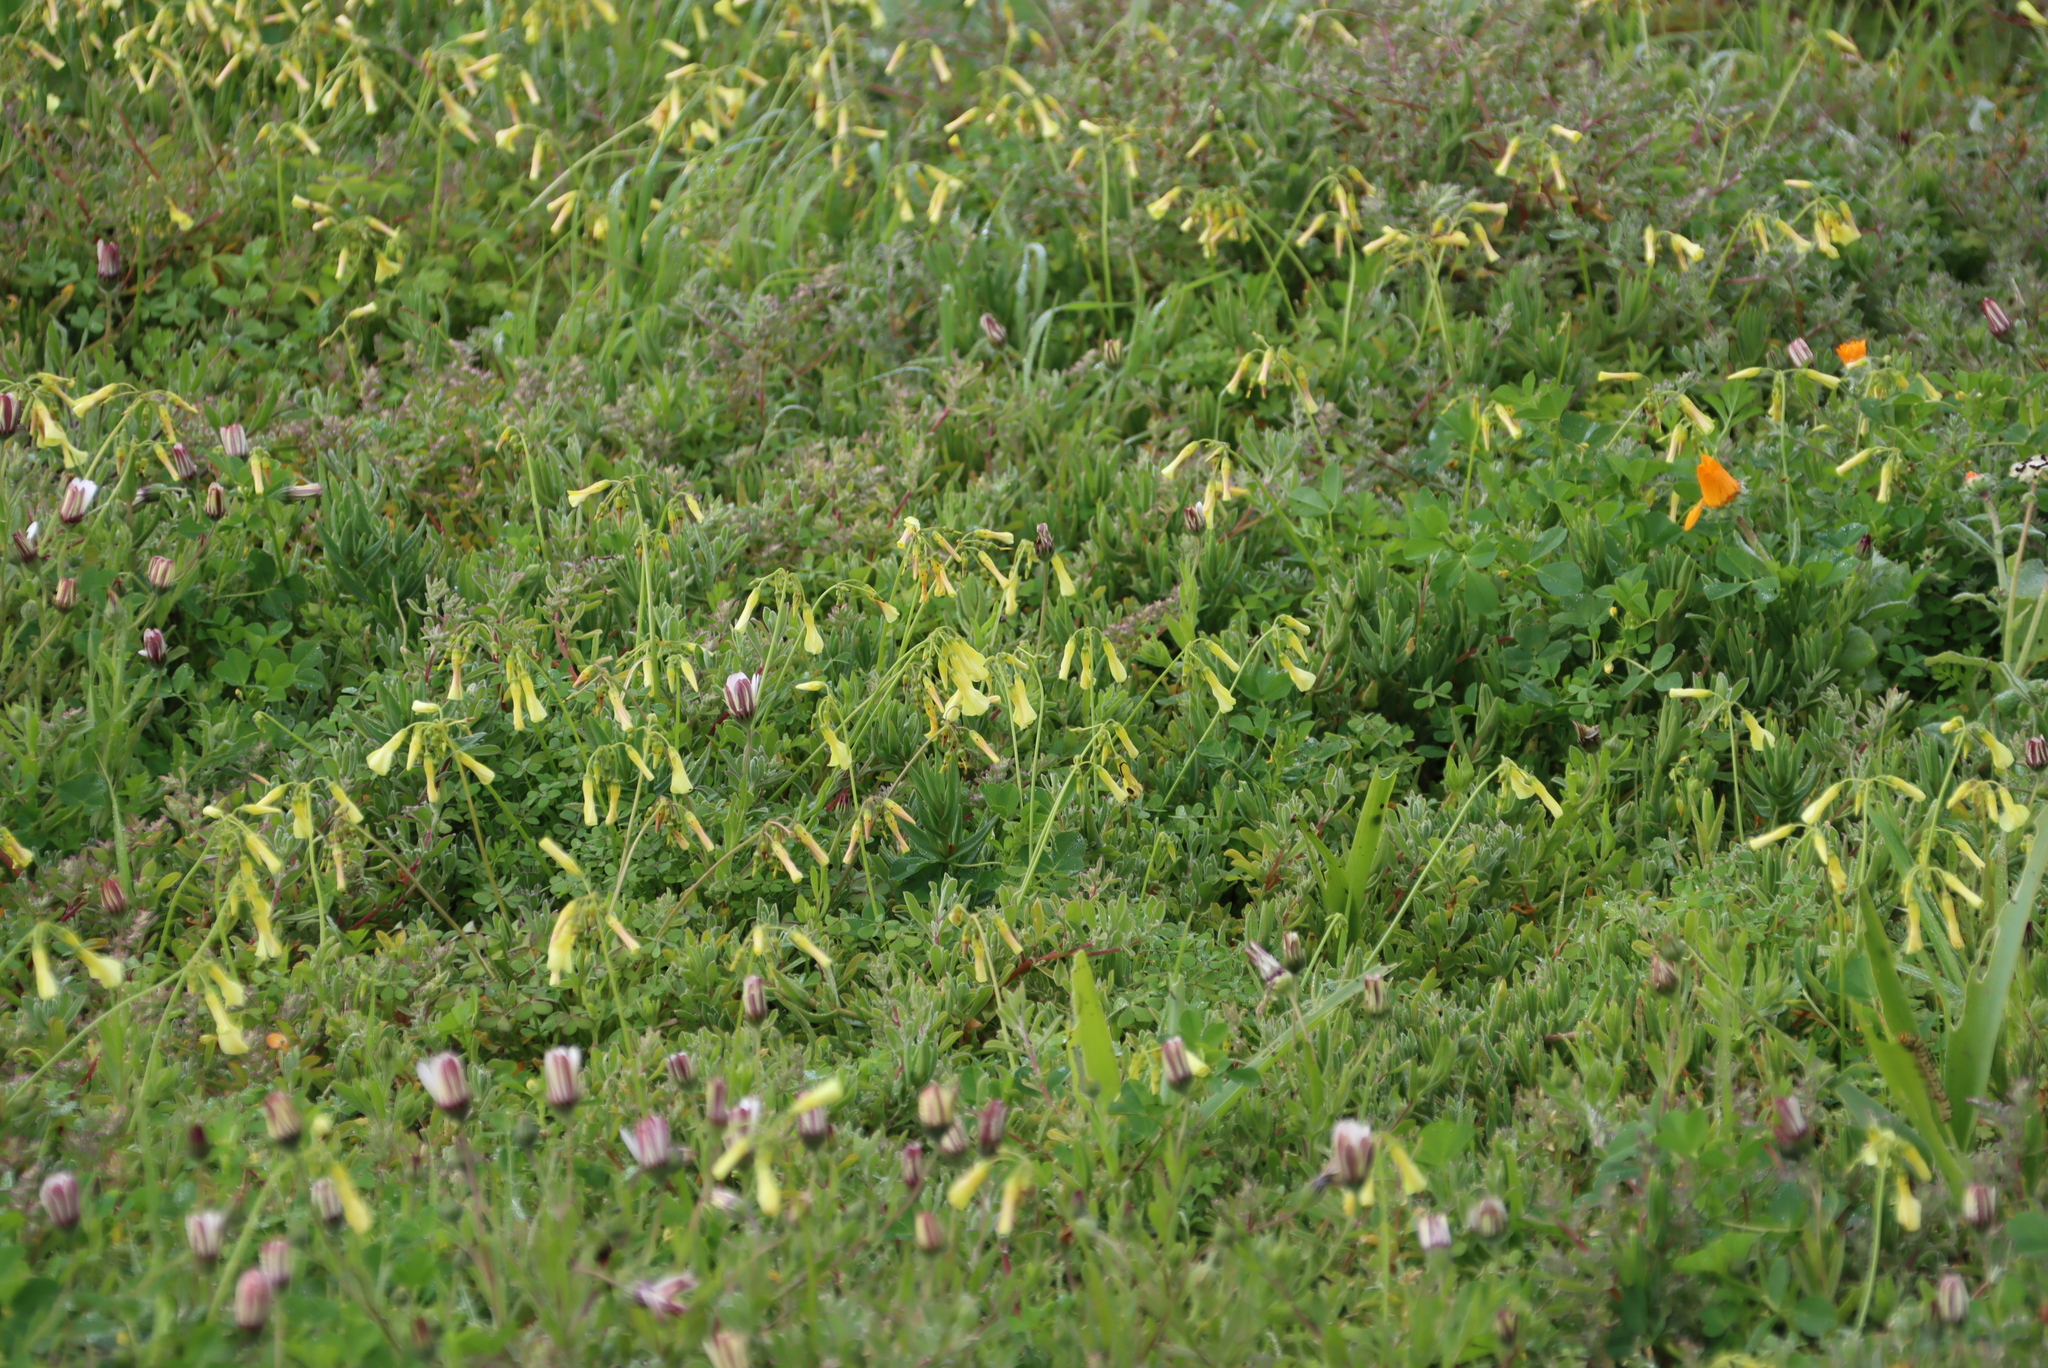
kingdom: Plantae
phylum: Tracheophyta
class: Magnoliopsida
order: Oxalidales
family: Oxalidaceae
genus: Oxalis
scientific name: Oxalis pes-caprae
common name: Bermuda-buttercup
